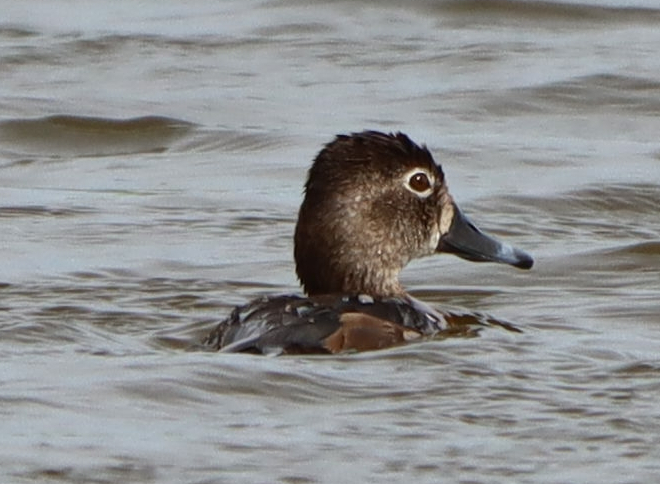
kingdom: Animalia
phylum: Chordata
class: Aves
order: Anseriformes
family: Anatidae
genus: Aythya
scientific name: Aythya collaris
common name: Ring-necked duck
